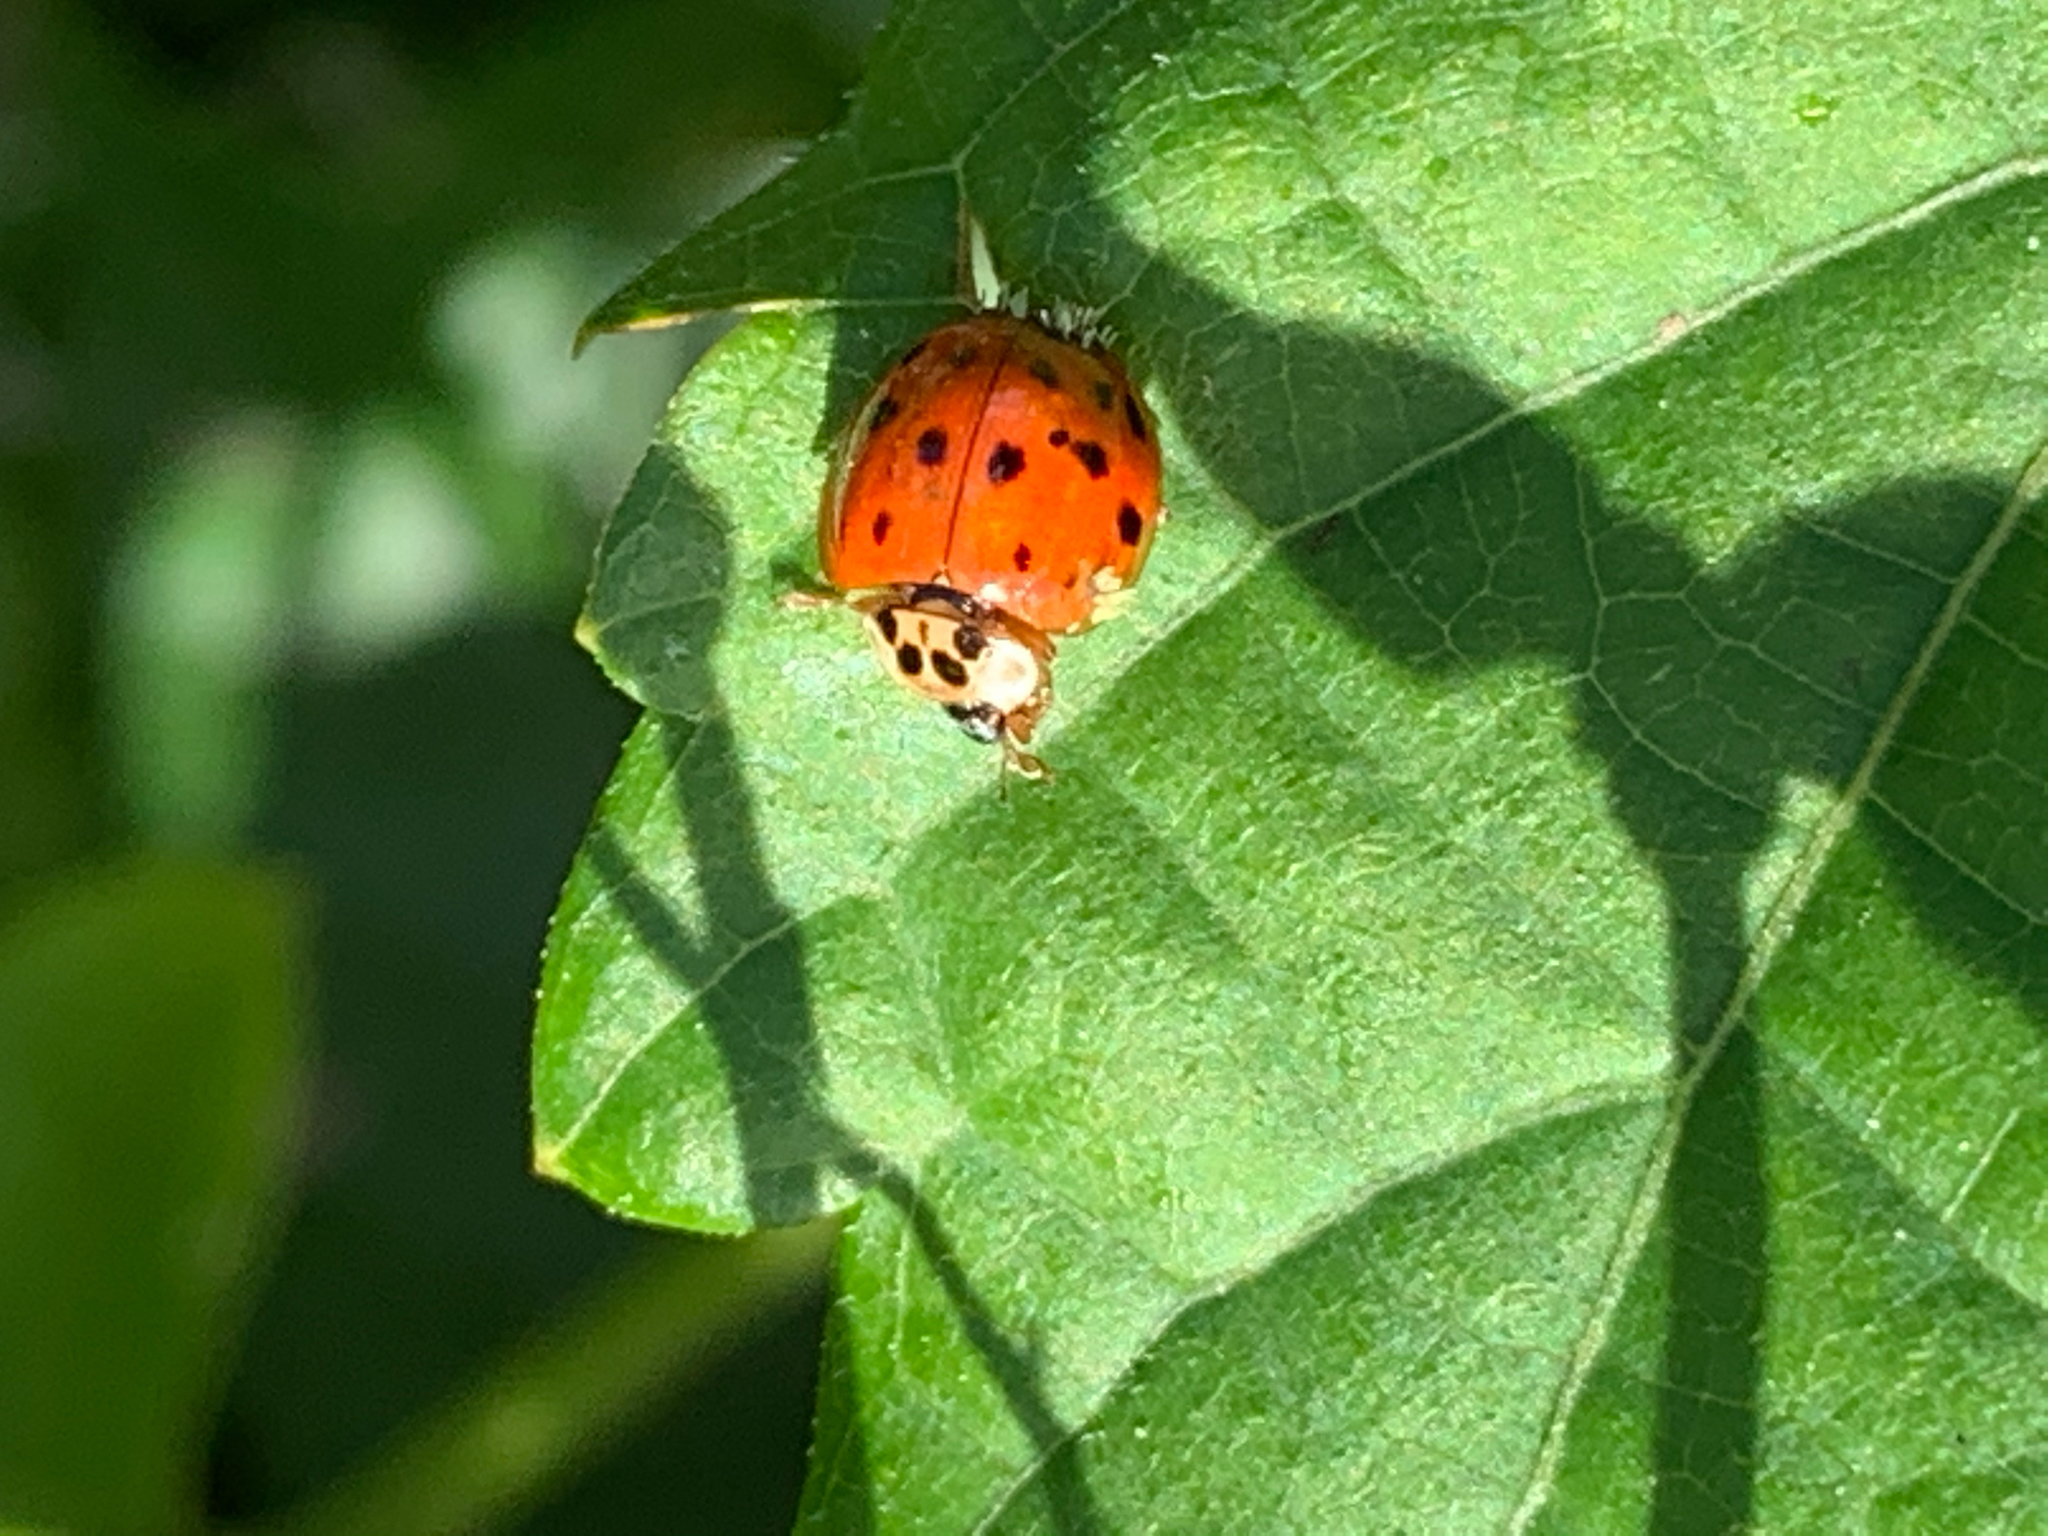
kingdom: Animalia
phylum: Arthropoda
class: Insecta
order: Coleoptera
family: Coccinellidae
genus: Harmonia
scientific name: Harmonia axyridis
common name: Harlequin ladybird
